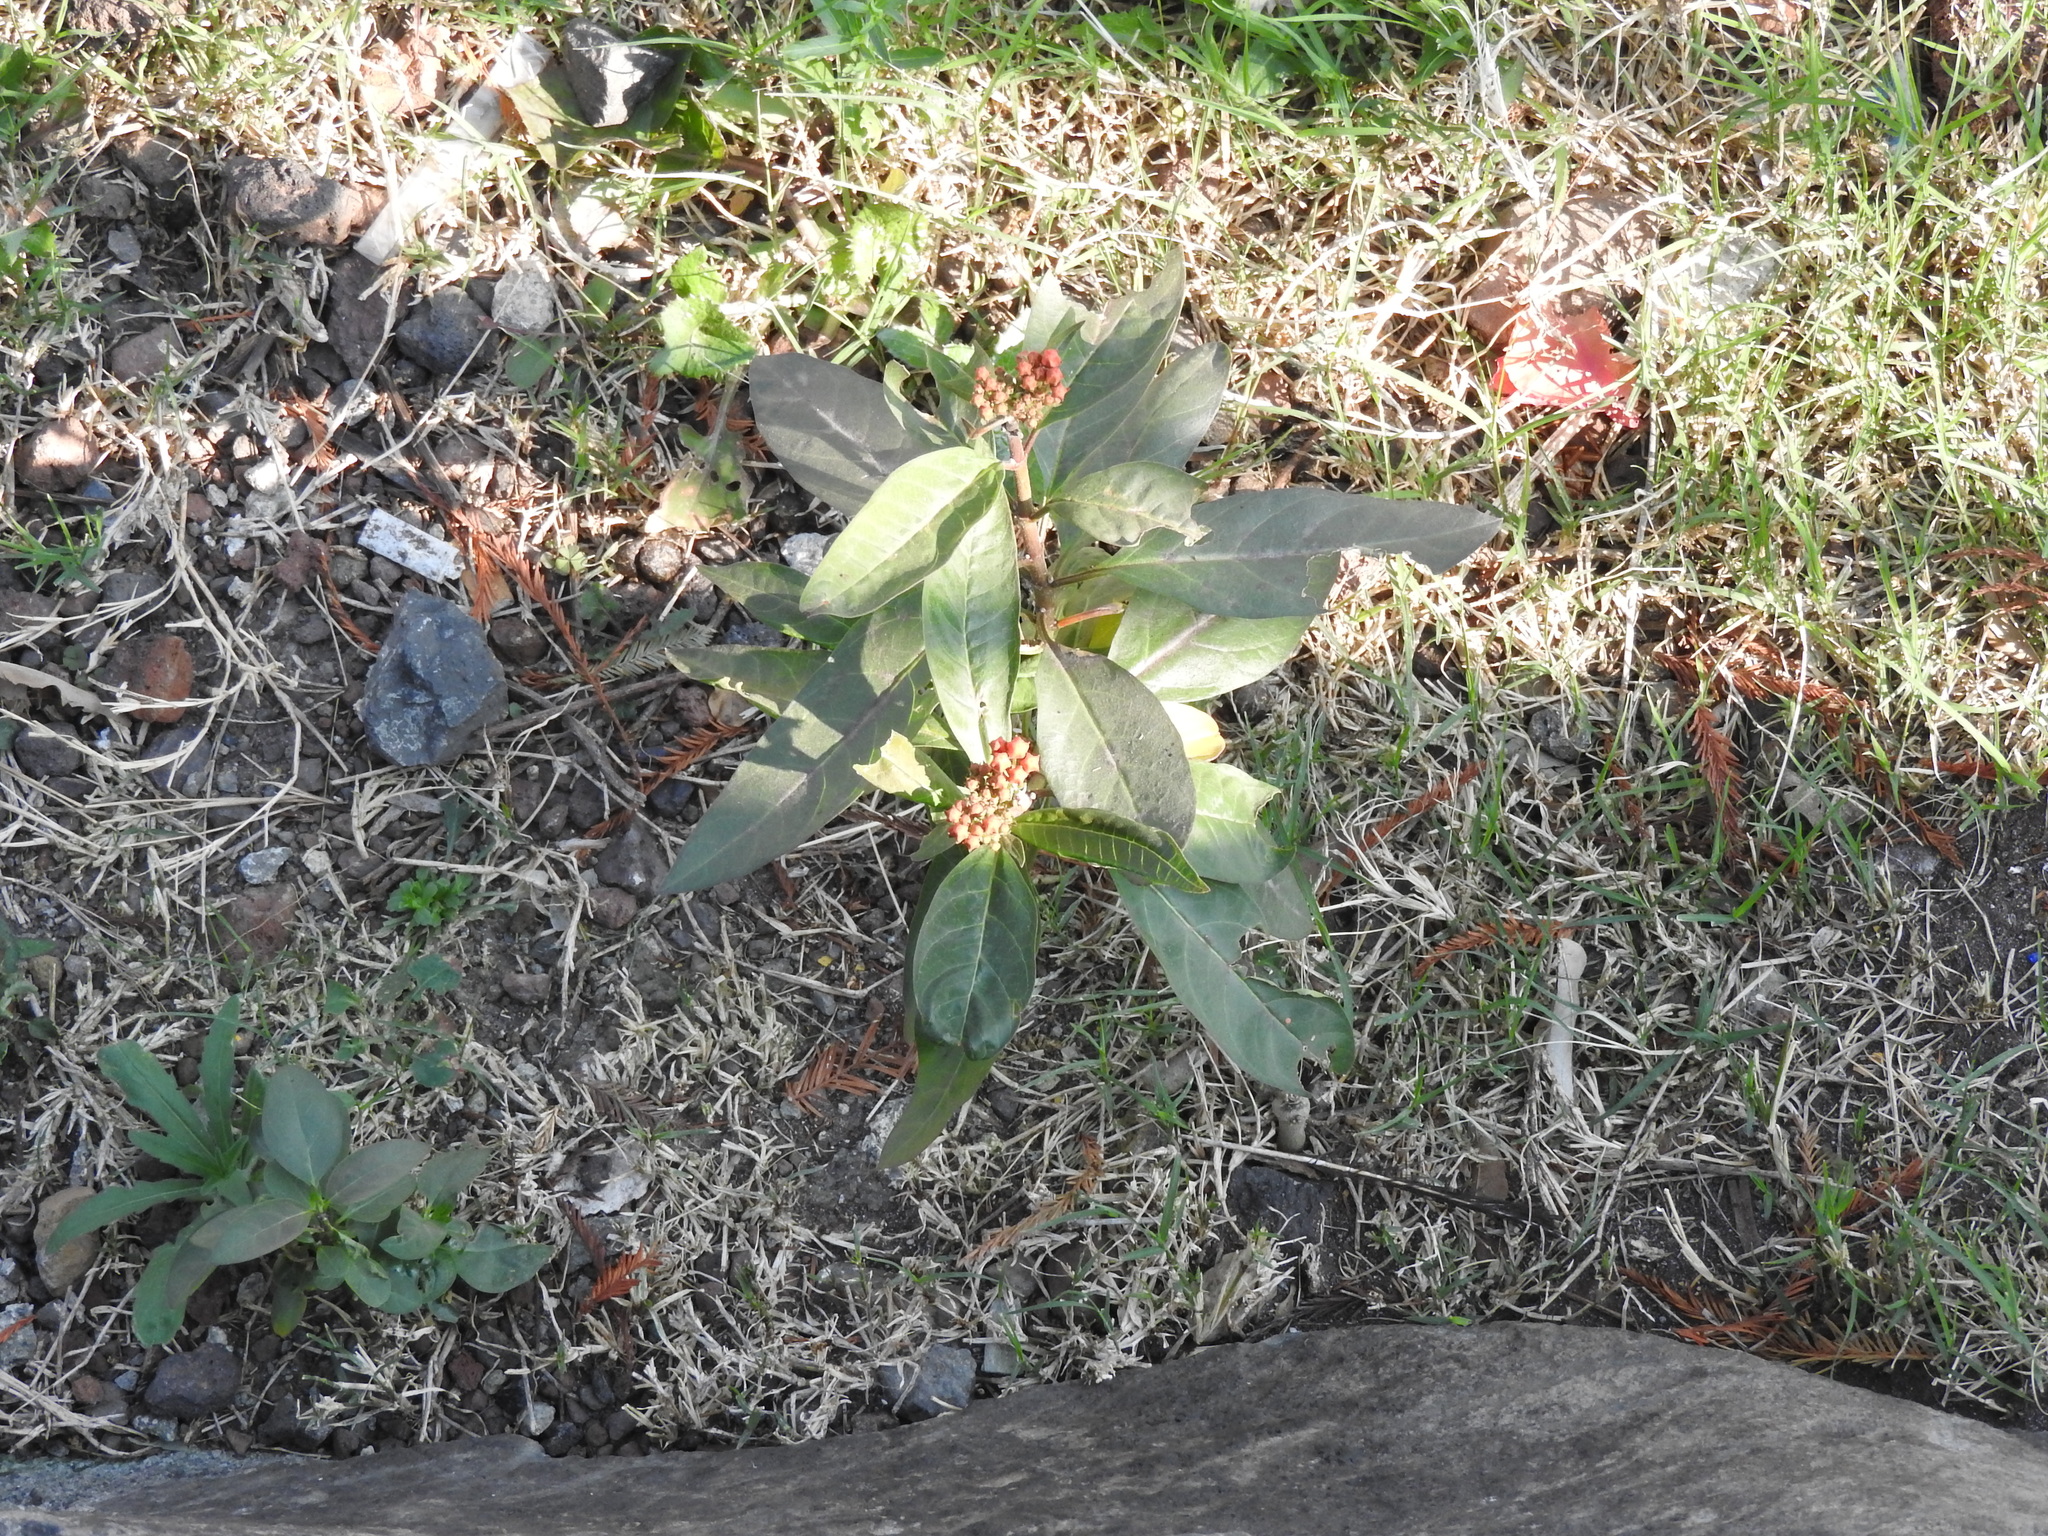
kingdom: Plantae
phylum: Tracheophyta
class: Magnoliopsida
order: Gentianales
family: Apocynaceae
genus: Asclepias
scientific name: Asclepias curassavica
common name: Bloodflower
